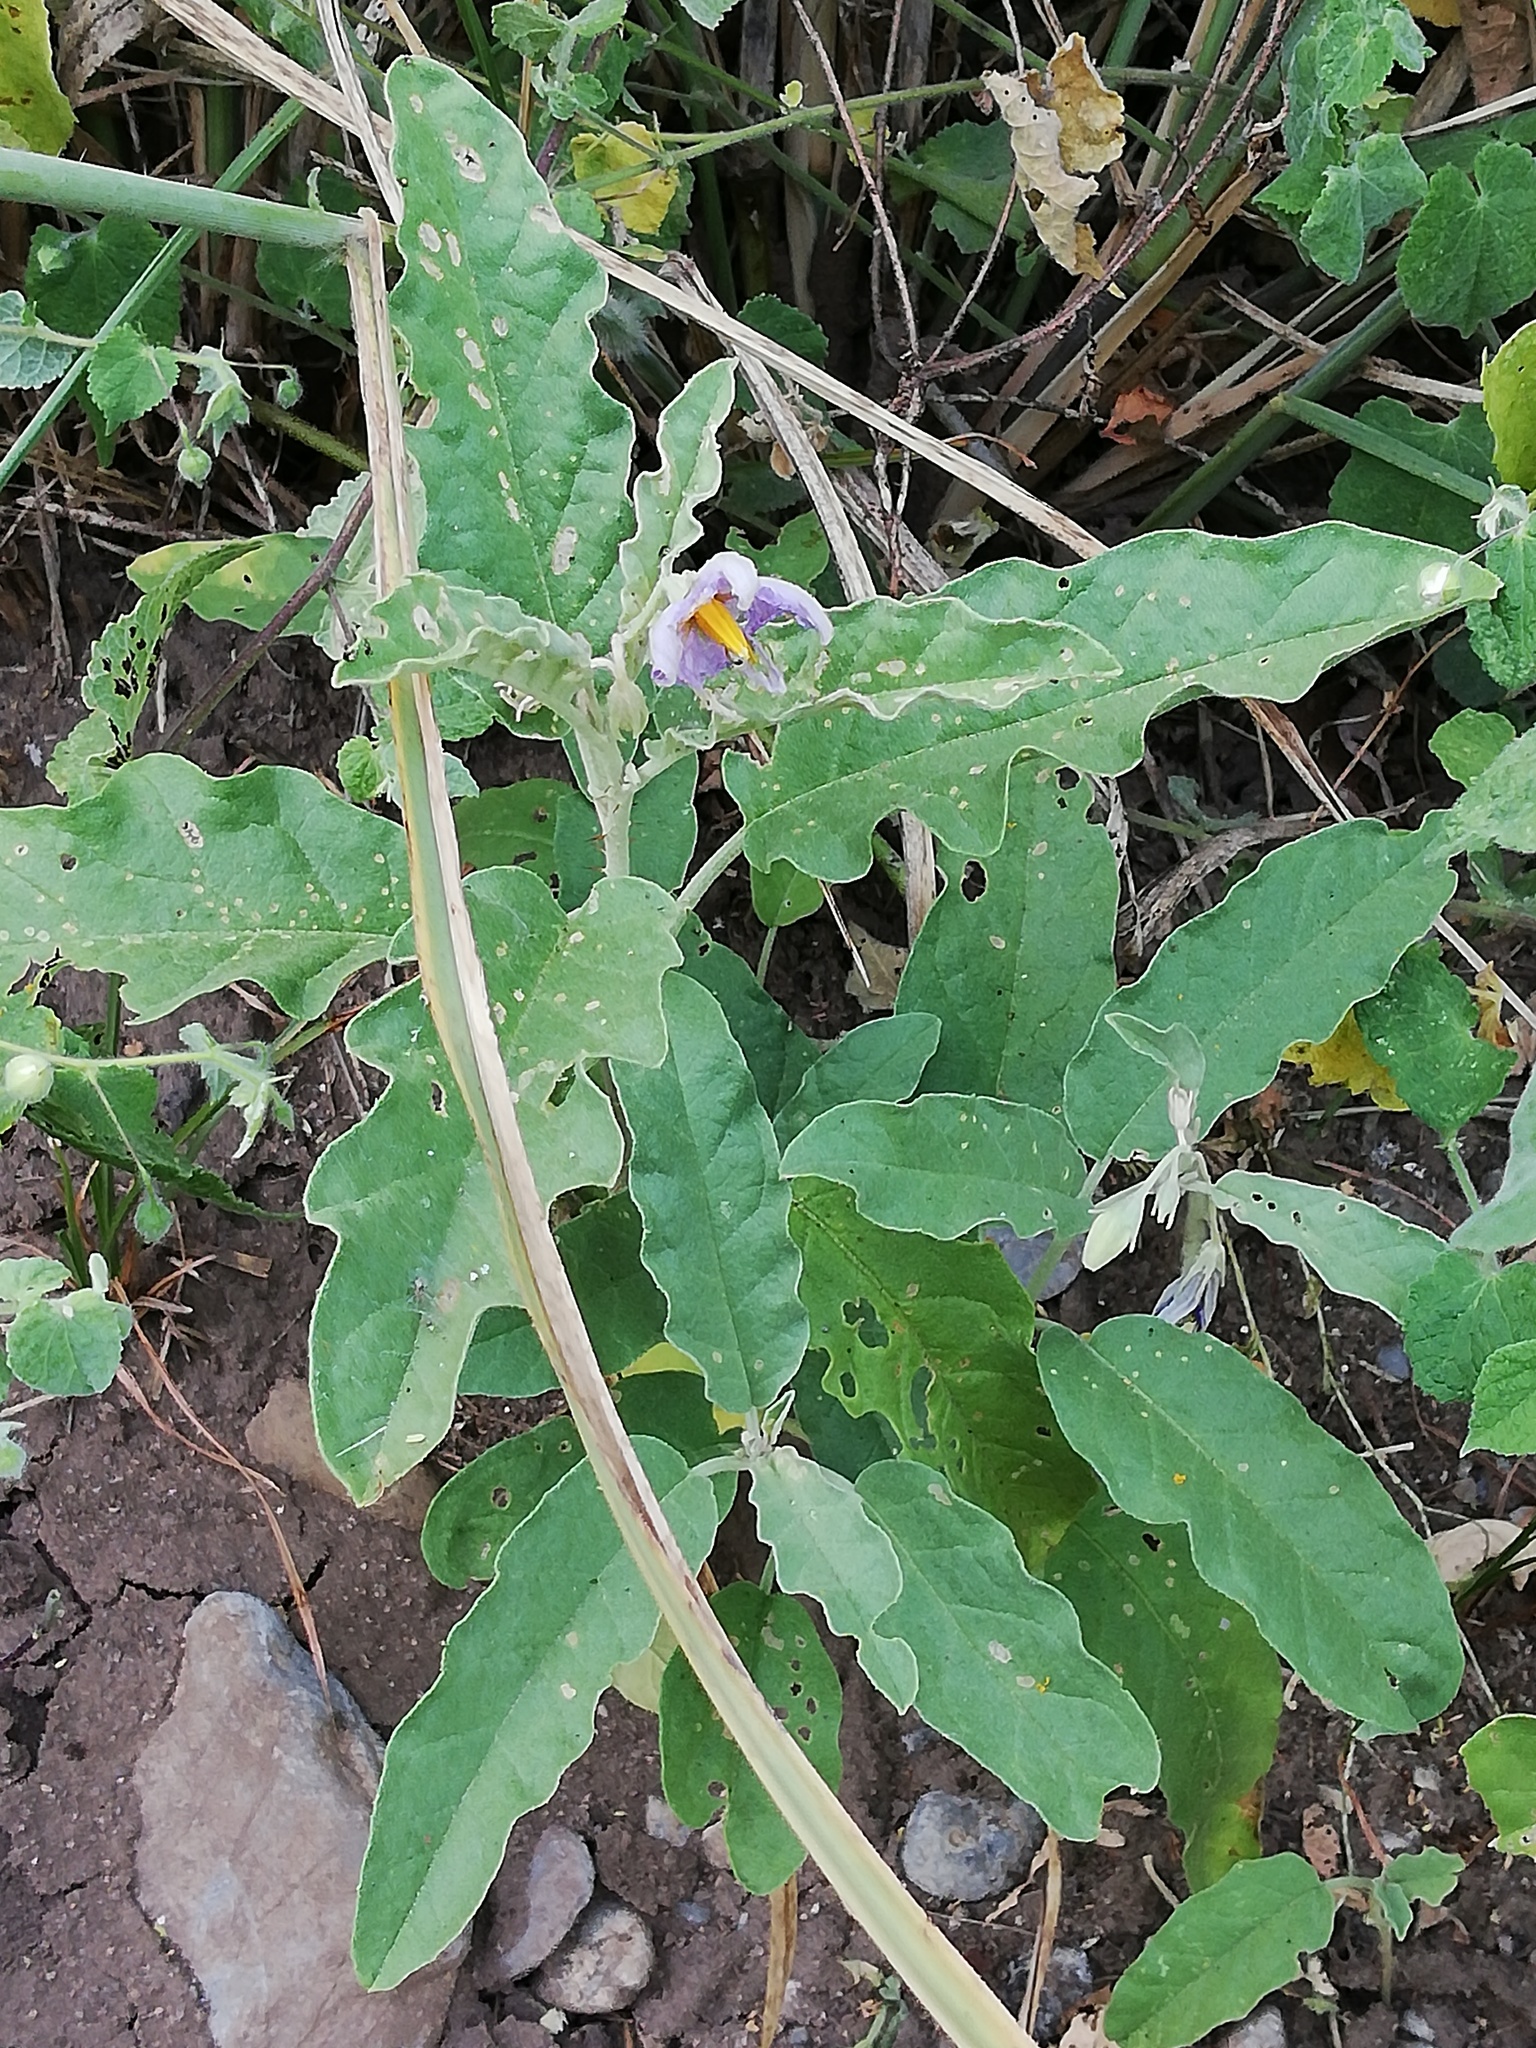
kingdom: Plantae
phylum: Tracheophyta
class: Magnoliopsida
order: Solanales
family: Solanaceae
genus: Solanum
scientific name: Solanum elaeagnifolium
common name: Silverleaf nightshade
